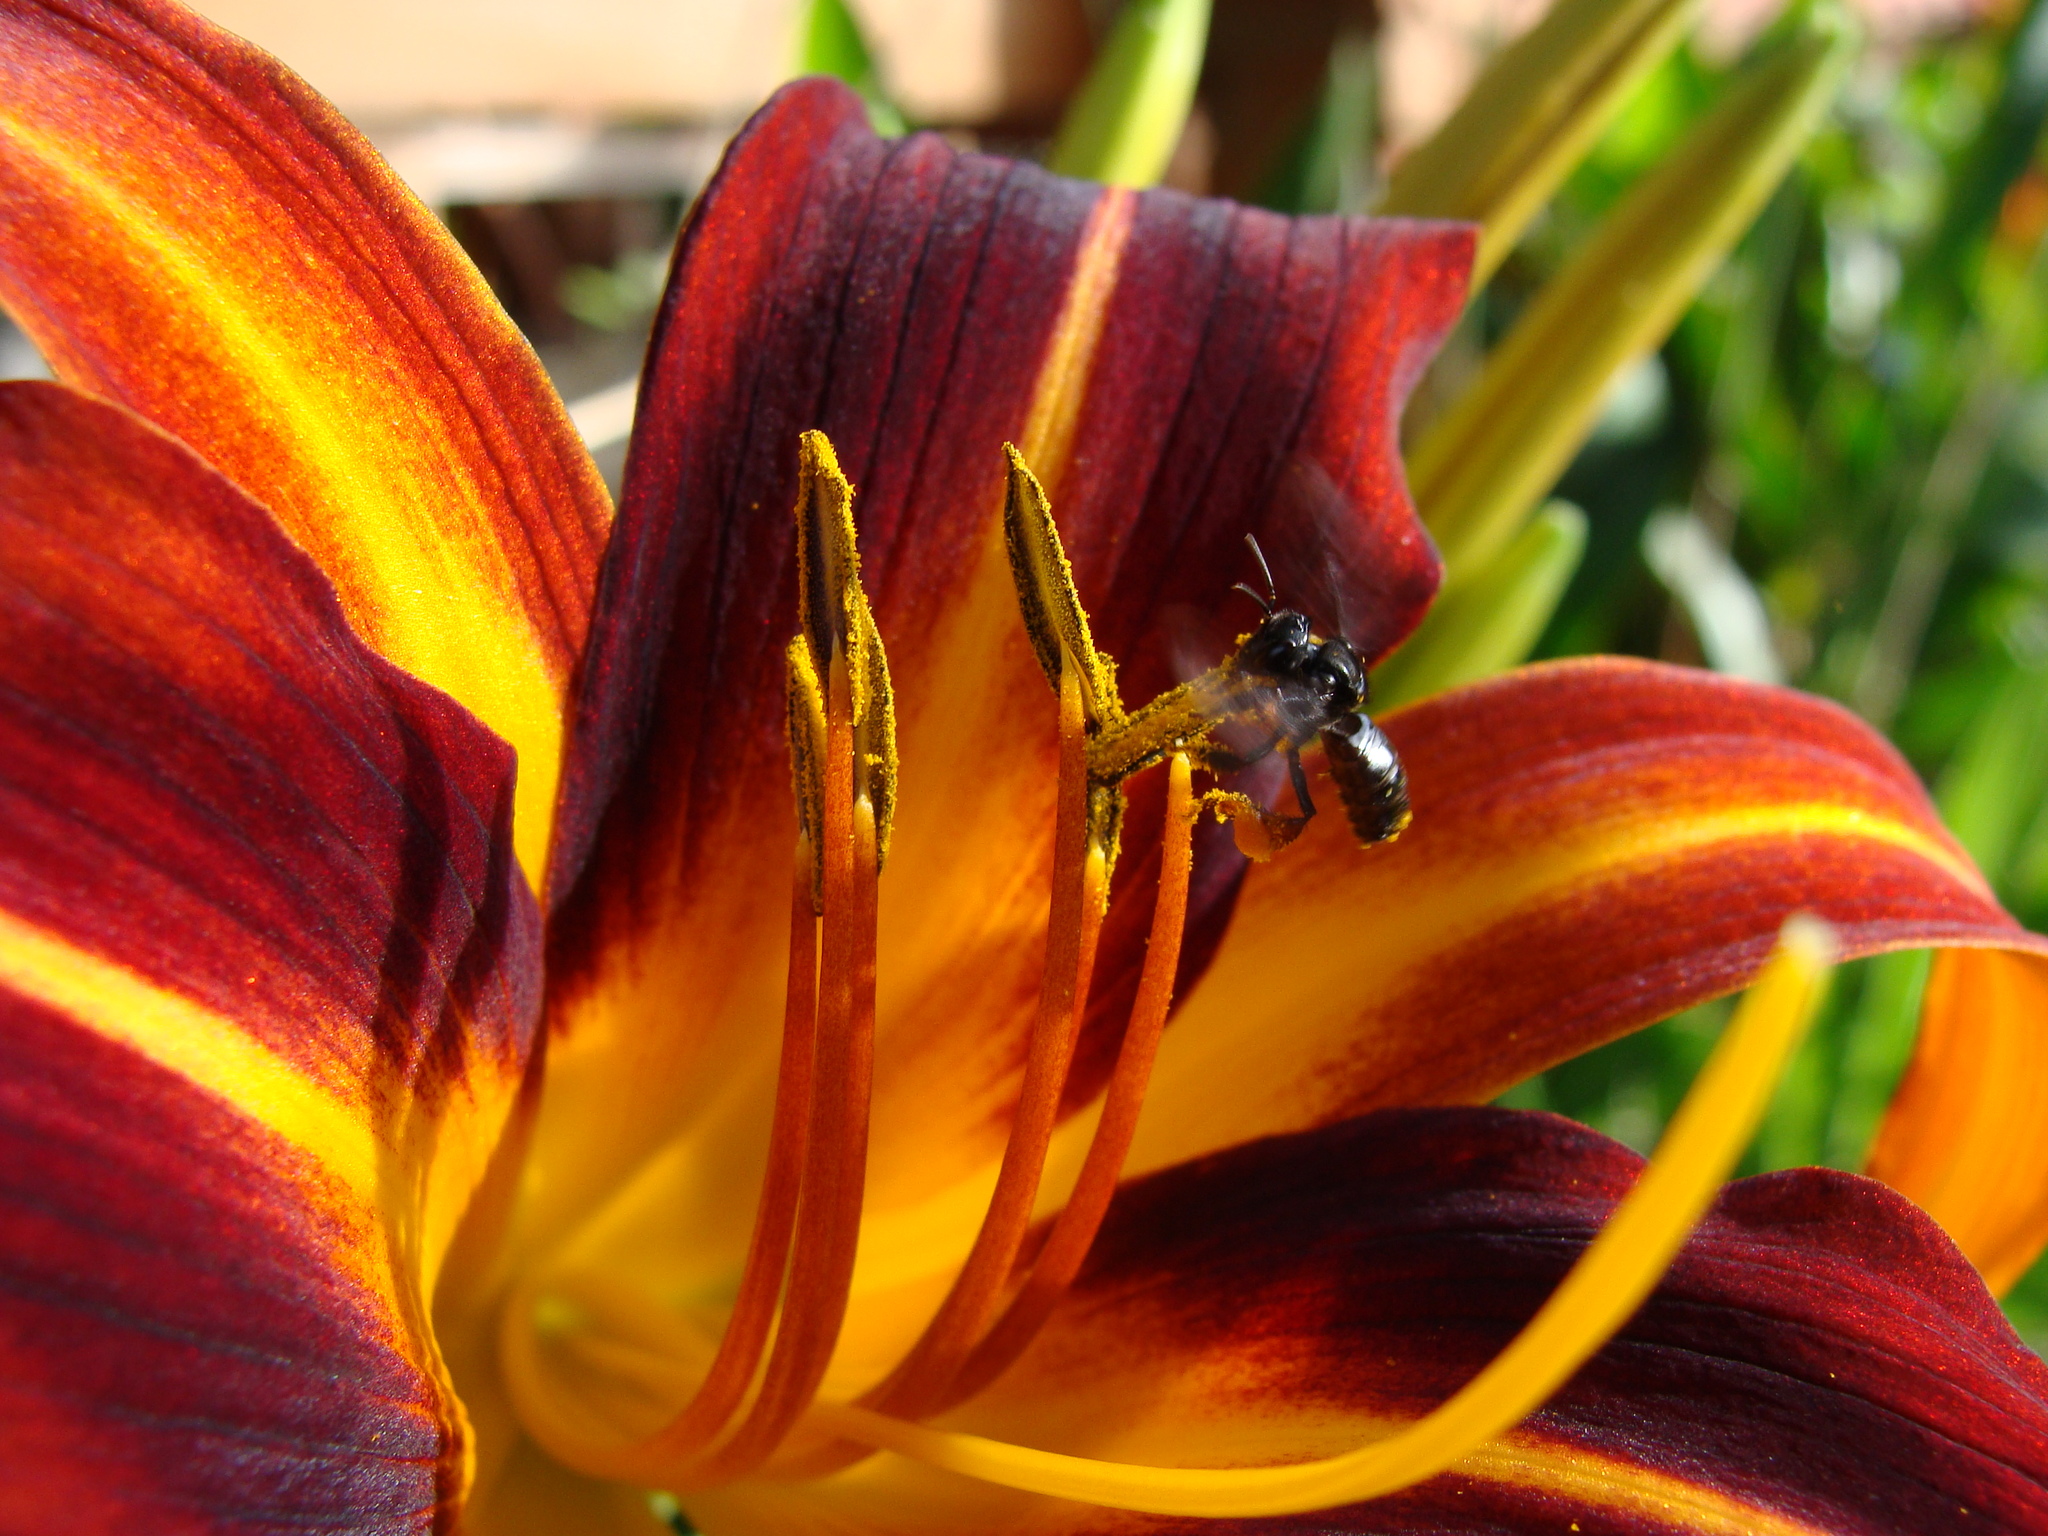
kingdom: Animalia
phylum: Arthropoda
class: Insecta
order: Hymenoptera
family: Apidae
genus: Trigona
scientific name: Trigona spinipes
